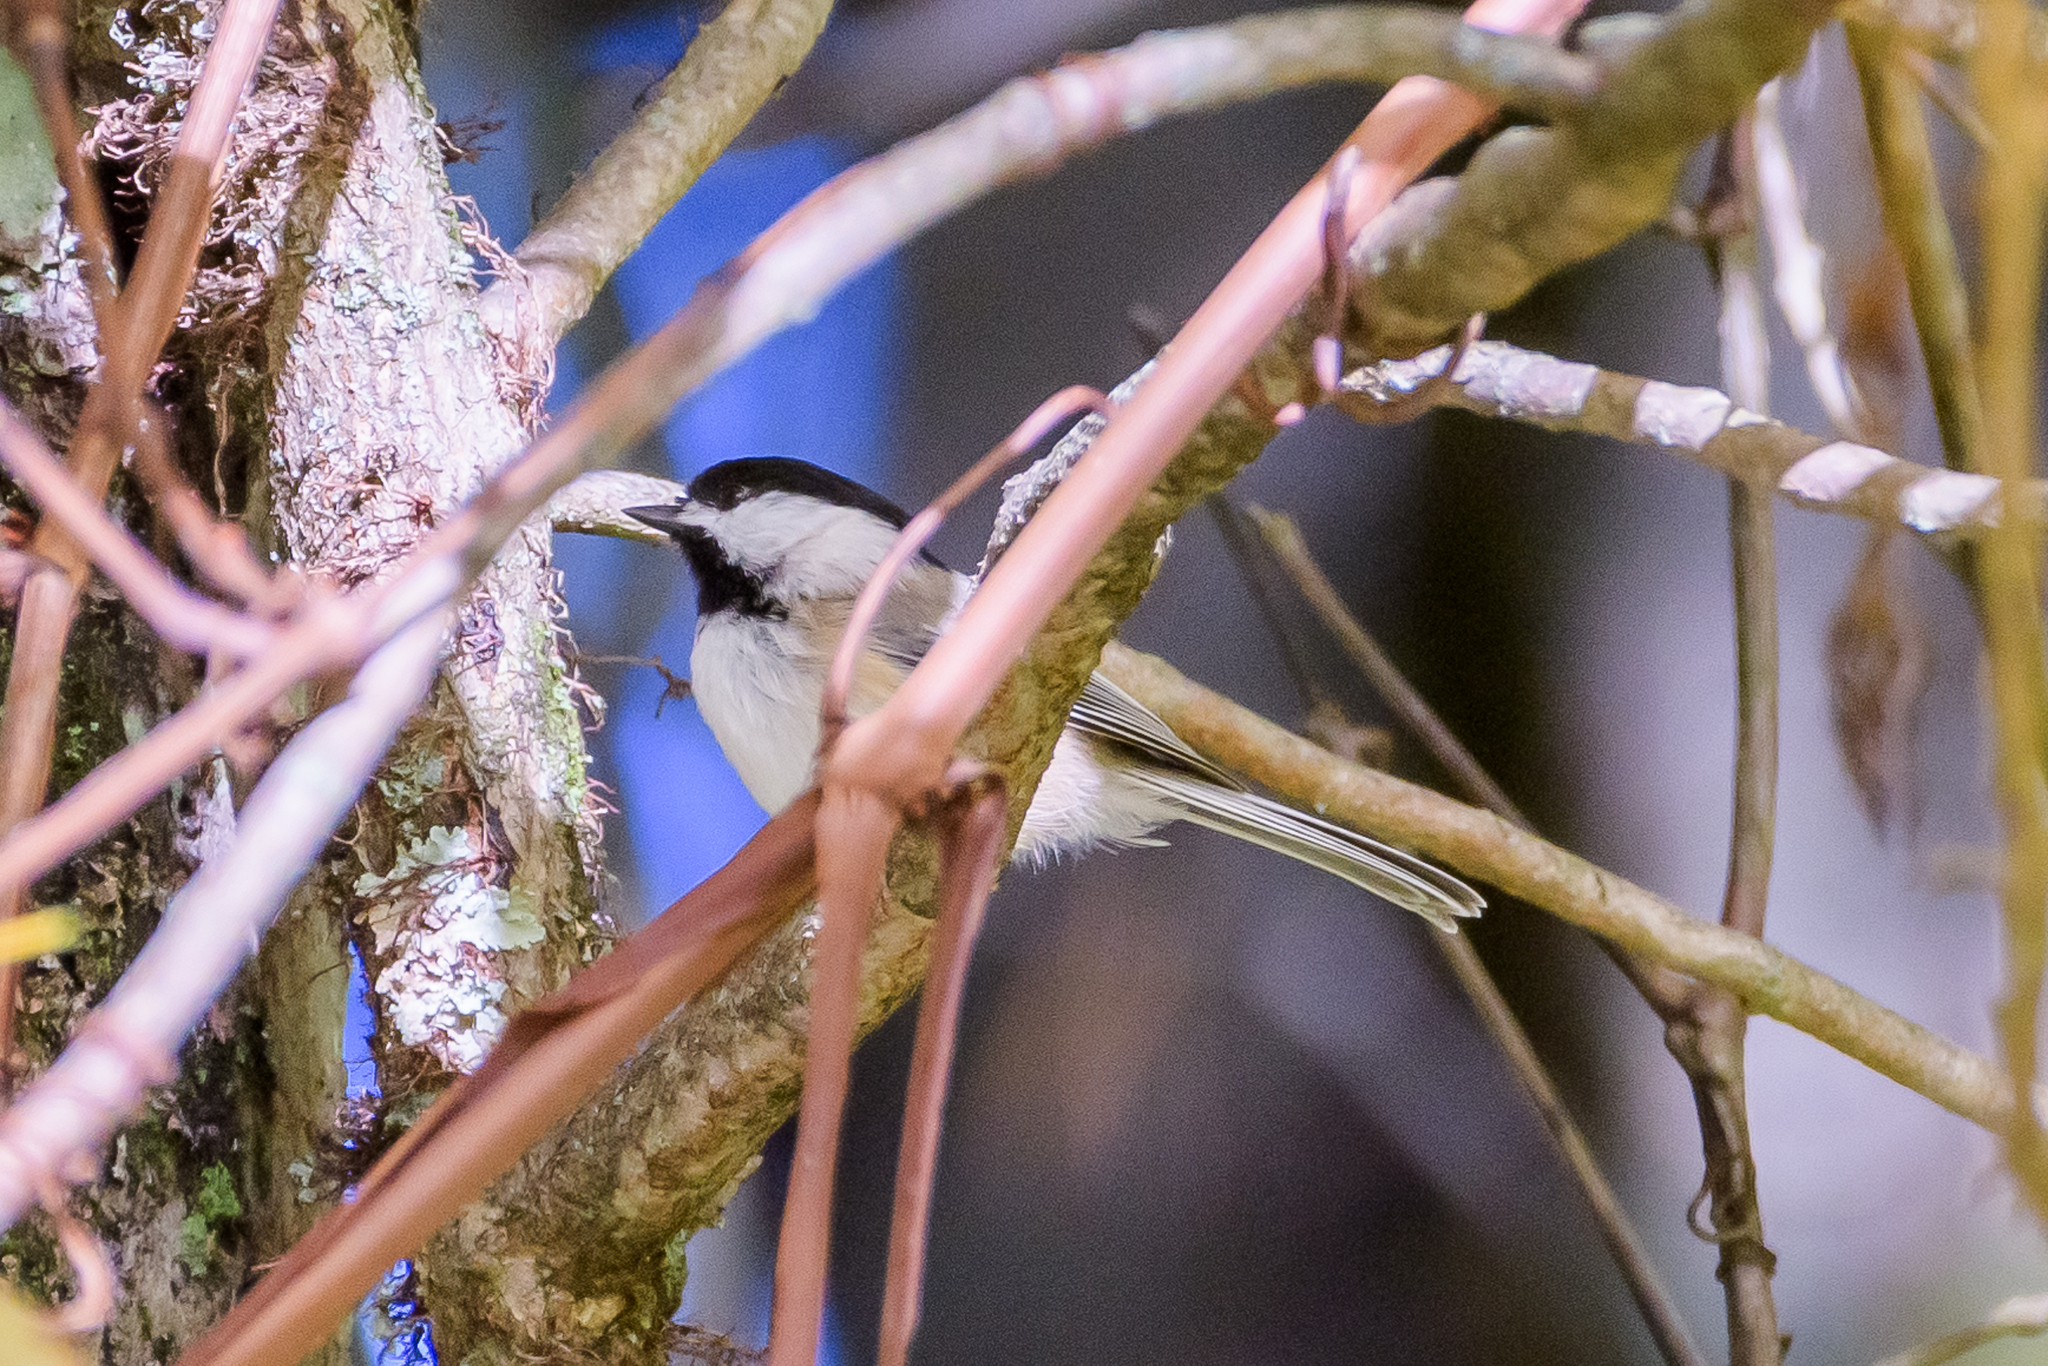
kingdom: Animalia
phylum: Chordata
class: Aves
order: Passeriformes
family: Paridae
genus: Poecile
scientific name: Poecile atricapillus
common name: Black-capped chickadee
